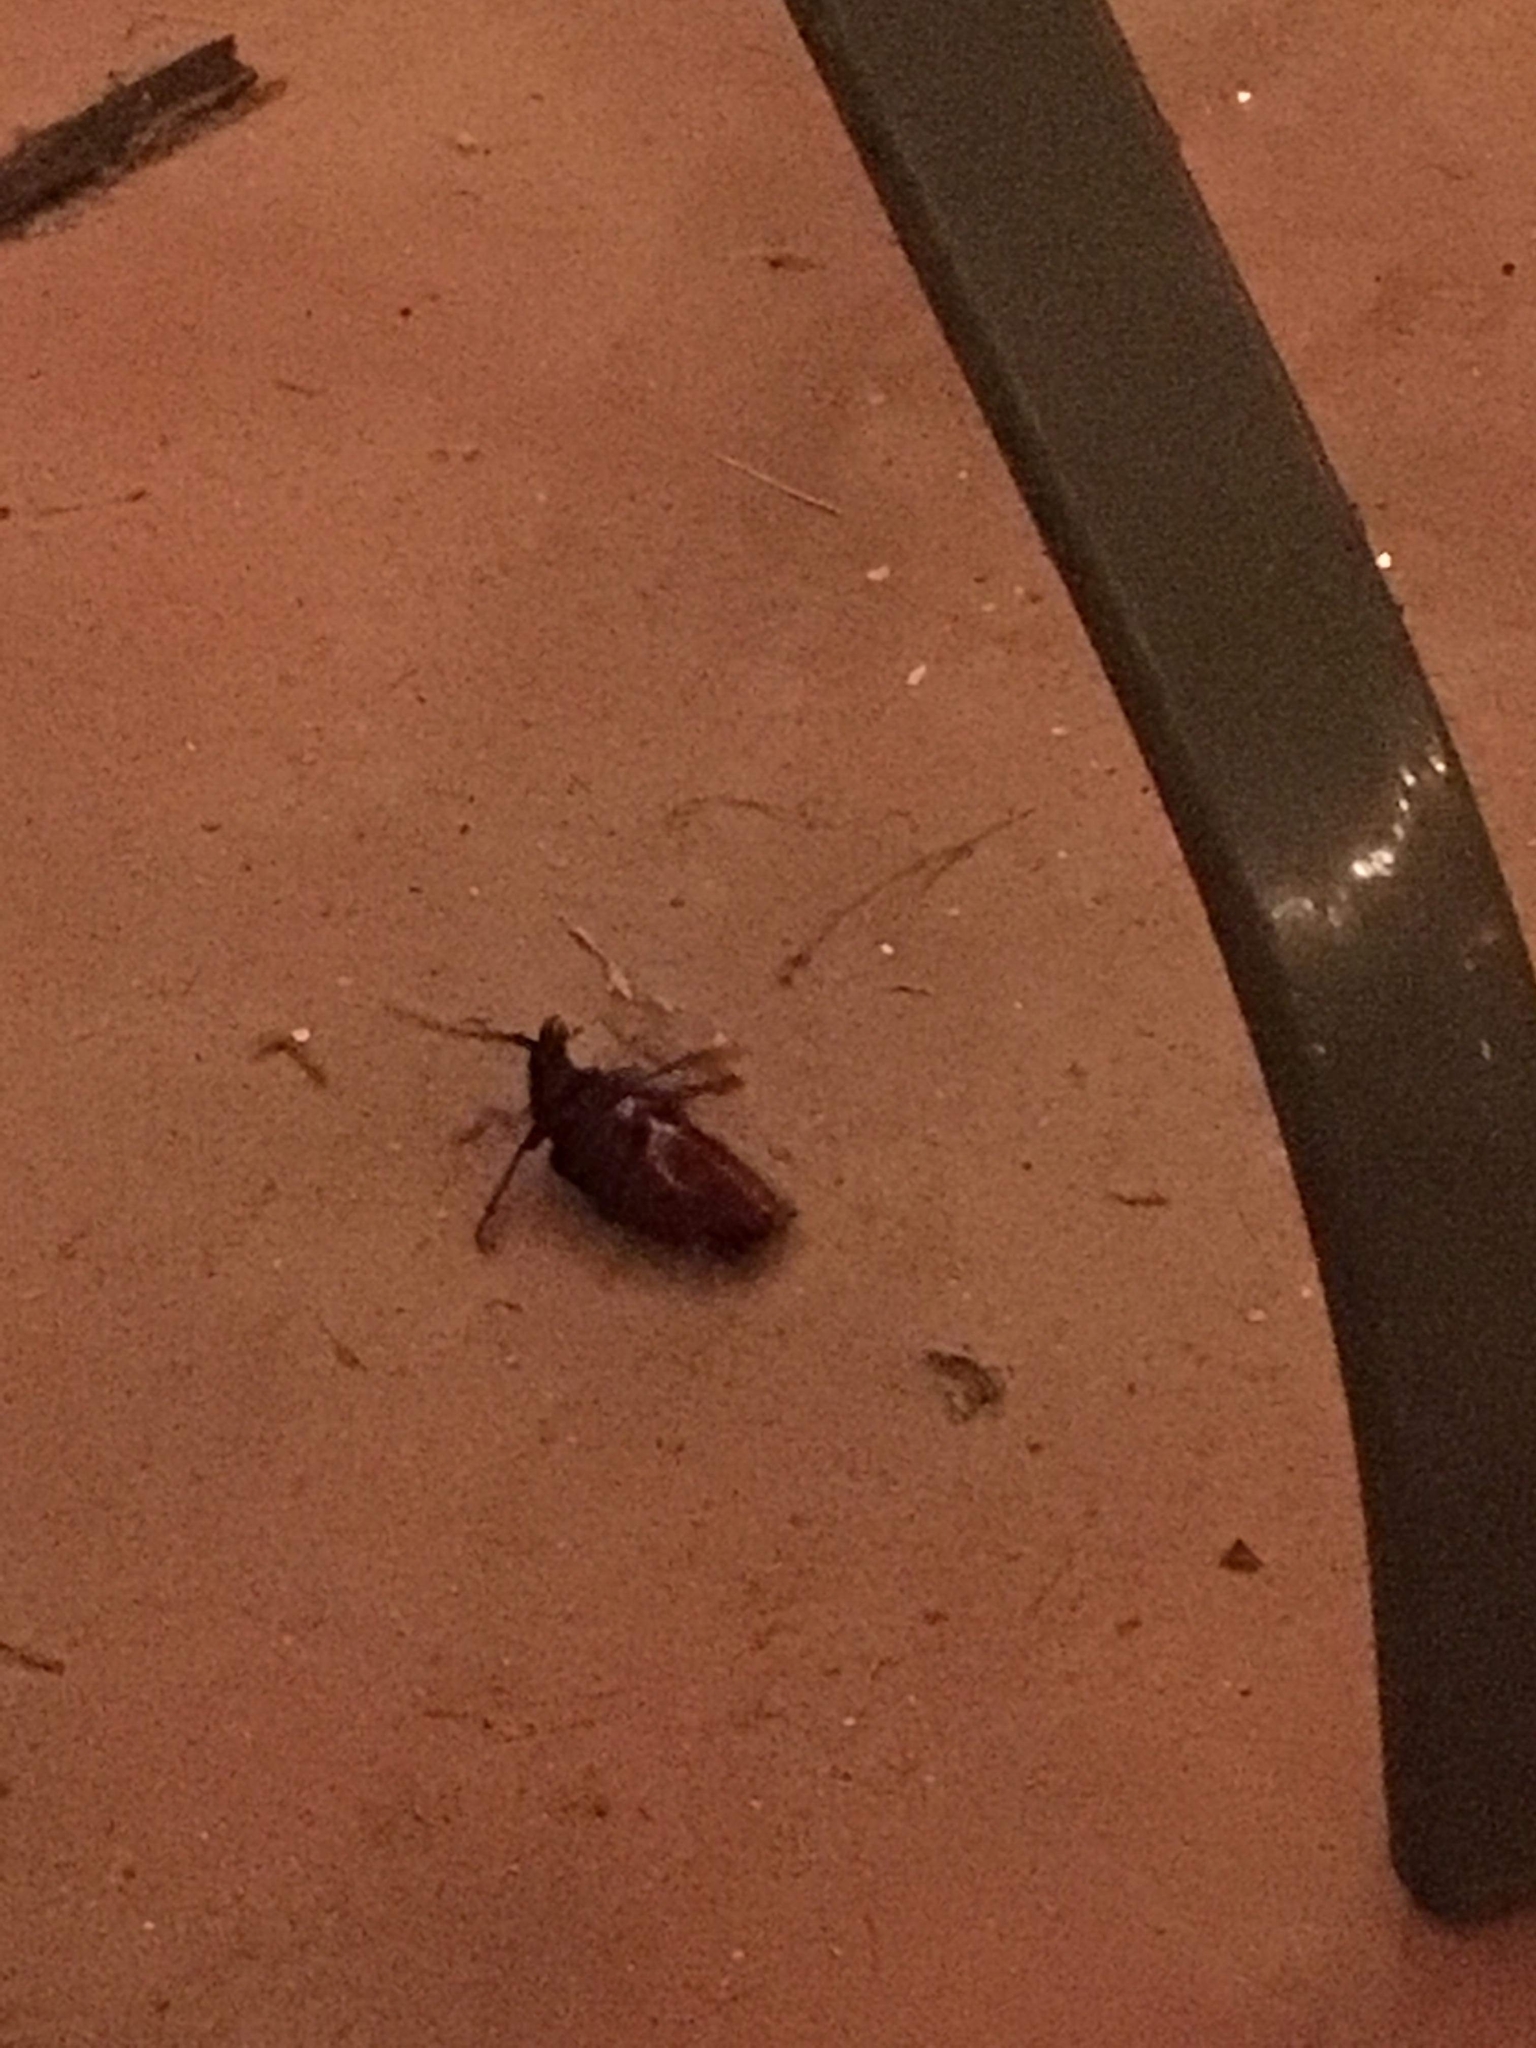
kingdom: Animalia
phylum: Arthropoda
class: Insecta
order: Coleoptera
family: Cerambycidae
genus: Prionus
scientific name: Prionus californicus
